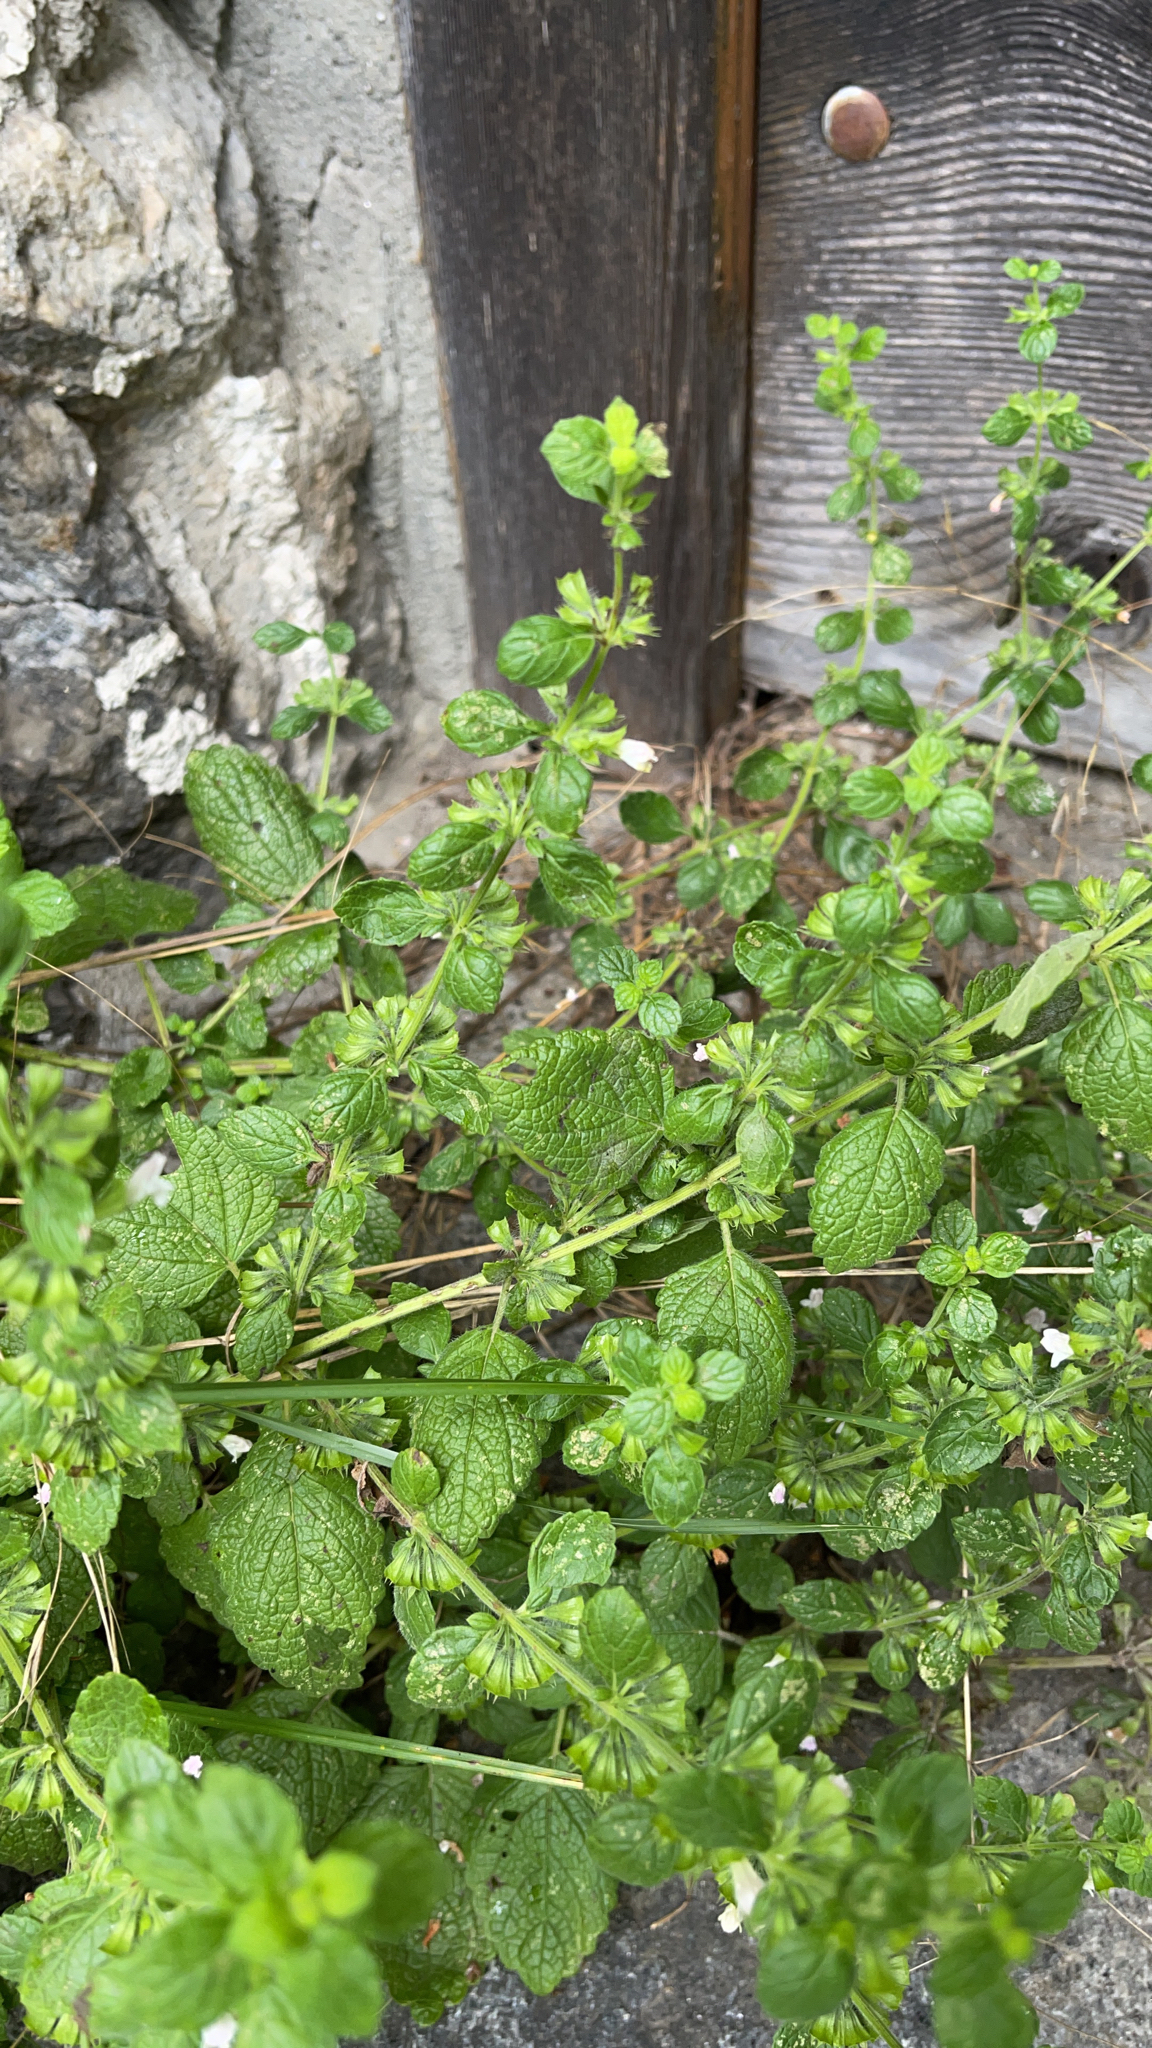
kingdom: Plantae
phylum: Tracheophyta
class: Magnoliopsida
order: Lamiales
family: Lamiaceae
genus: Melissa
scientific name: Melissa officinalis
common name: Balm
